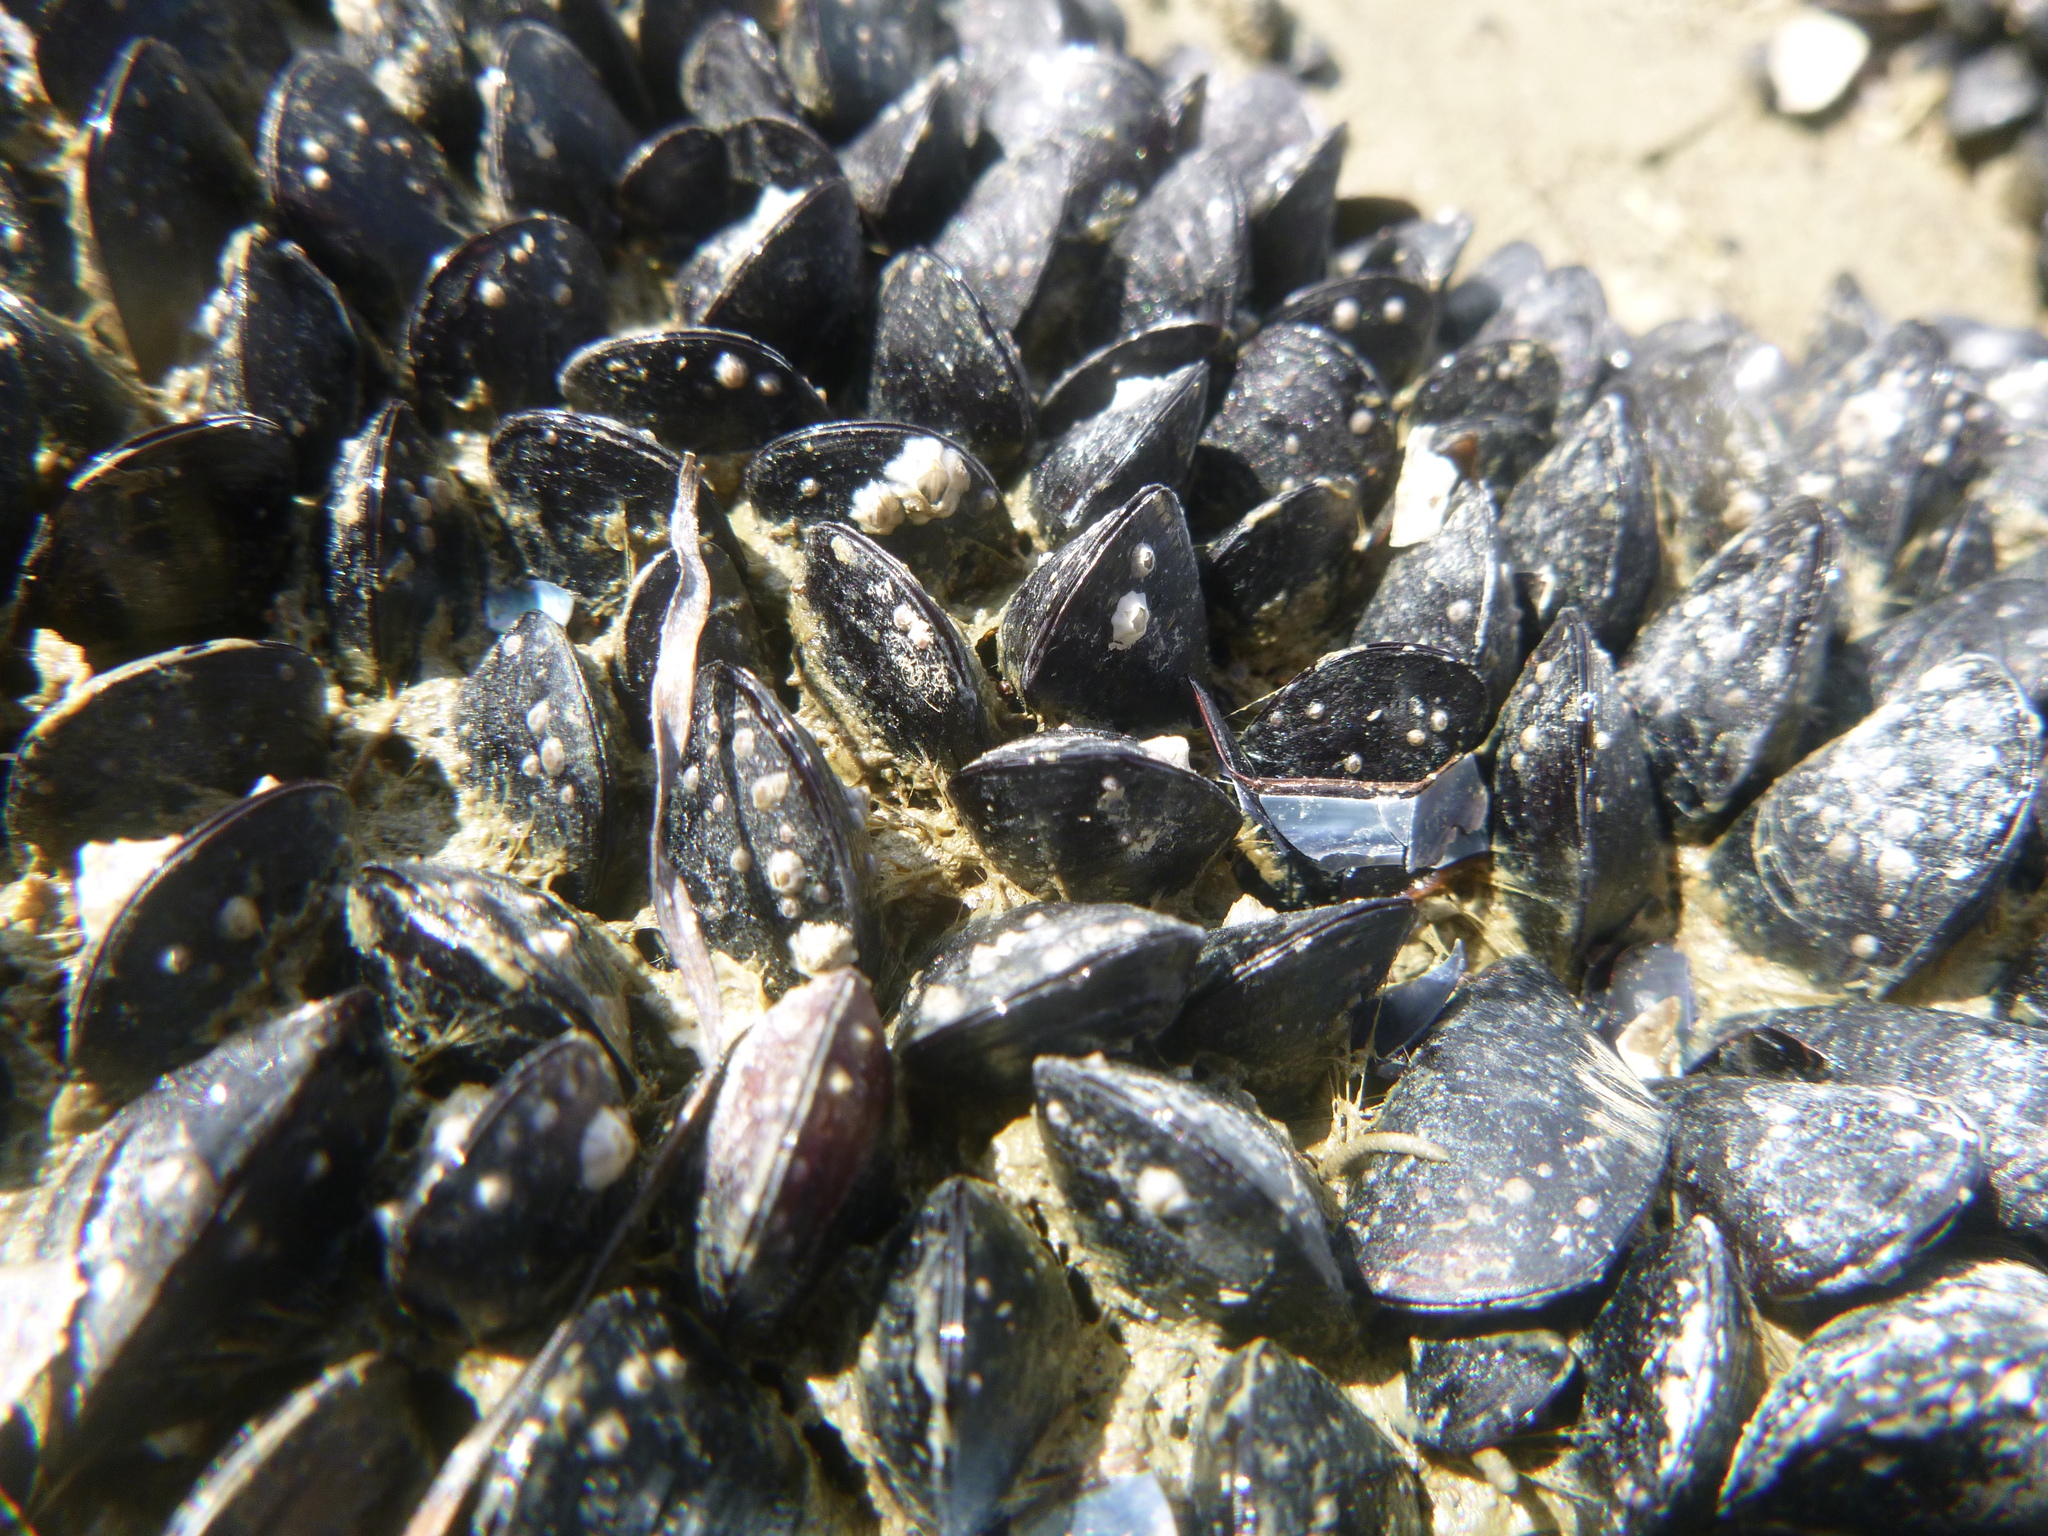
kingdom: Animalia
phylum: Mollusca
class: Bivalvia
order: Mytilida
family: Mytilidae
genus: Xenostrobus
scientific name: Xenostrobus neozelanicus
